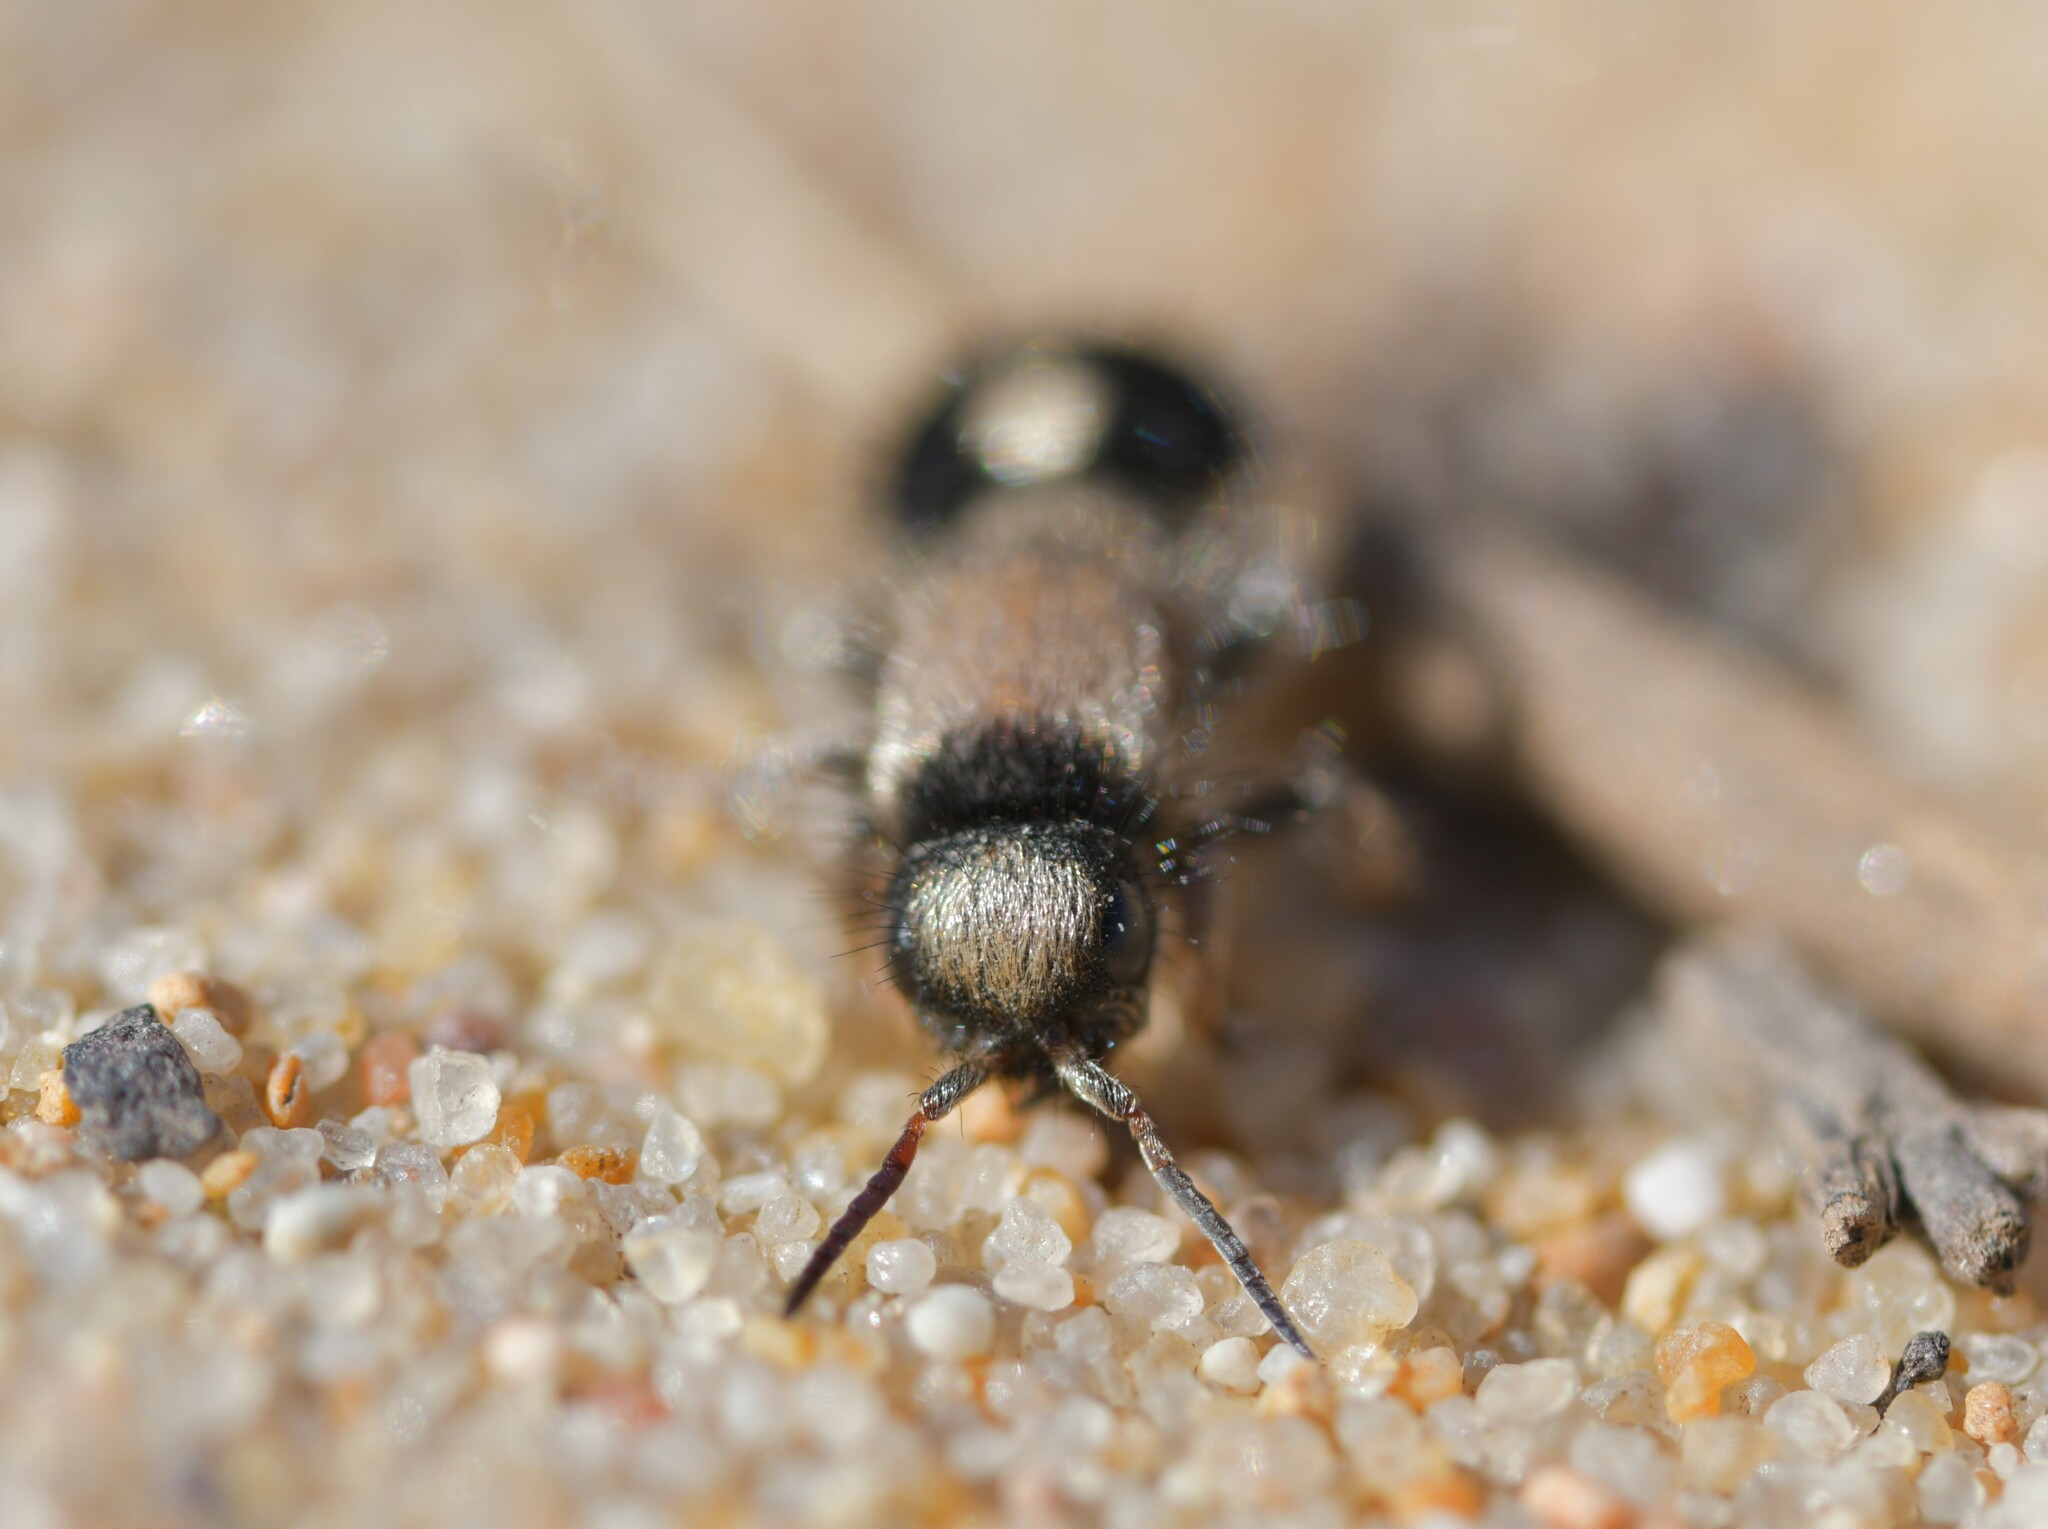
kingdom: Animalia
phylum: Arthropoda
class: Insecta
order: Hymenoptera
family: Mutillidae
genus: Nemka
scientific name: Nemka viduata
